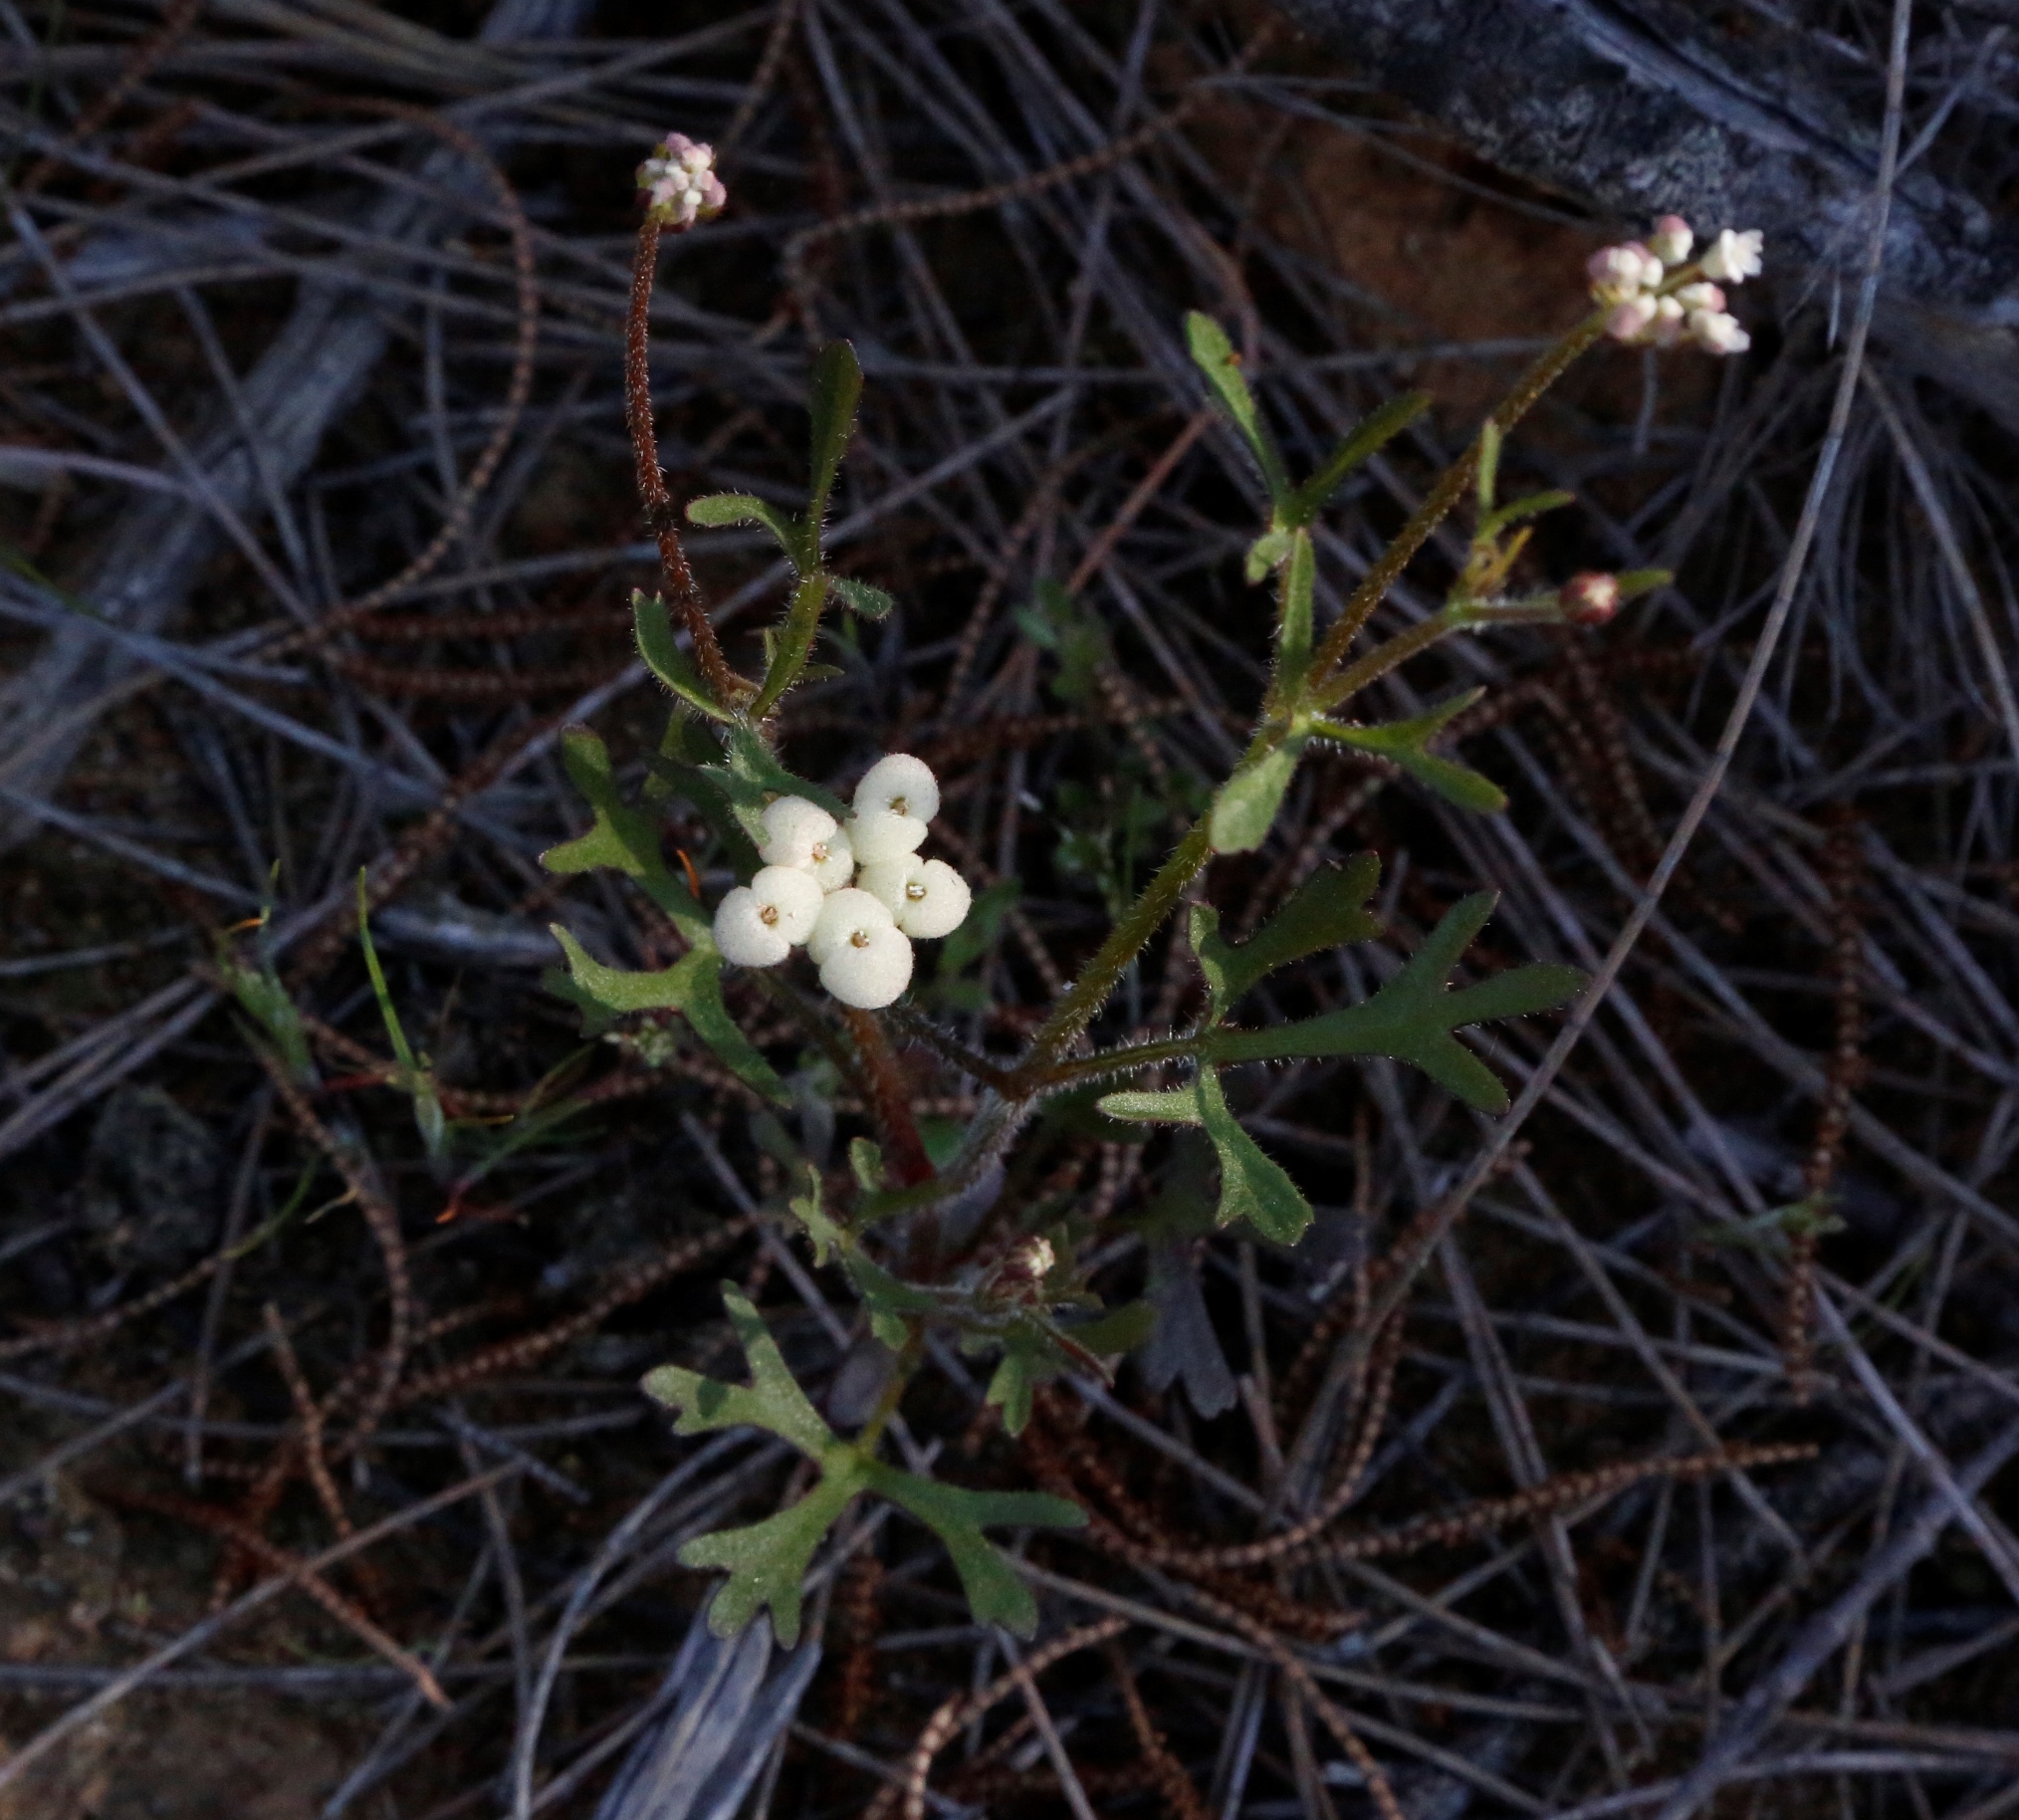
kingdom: Plantae
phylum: Tracheophyta
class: Magnoliopsida
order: Apiales
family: Araliaceae
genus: Trachymene
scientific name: Trachymene ornata
